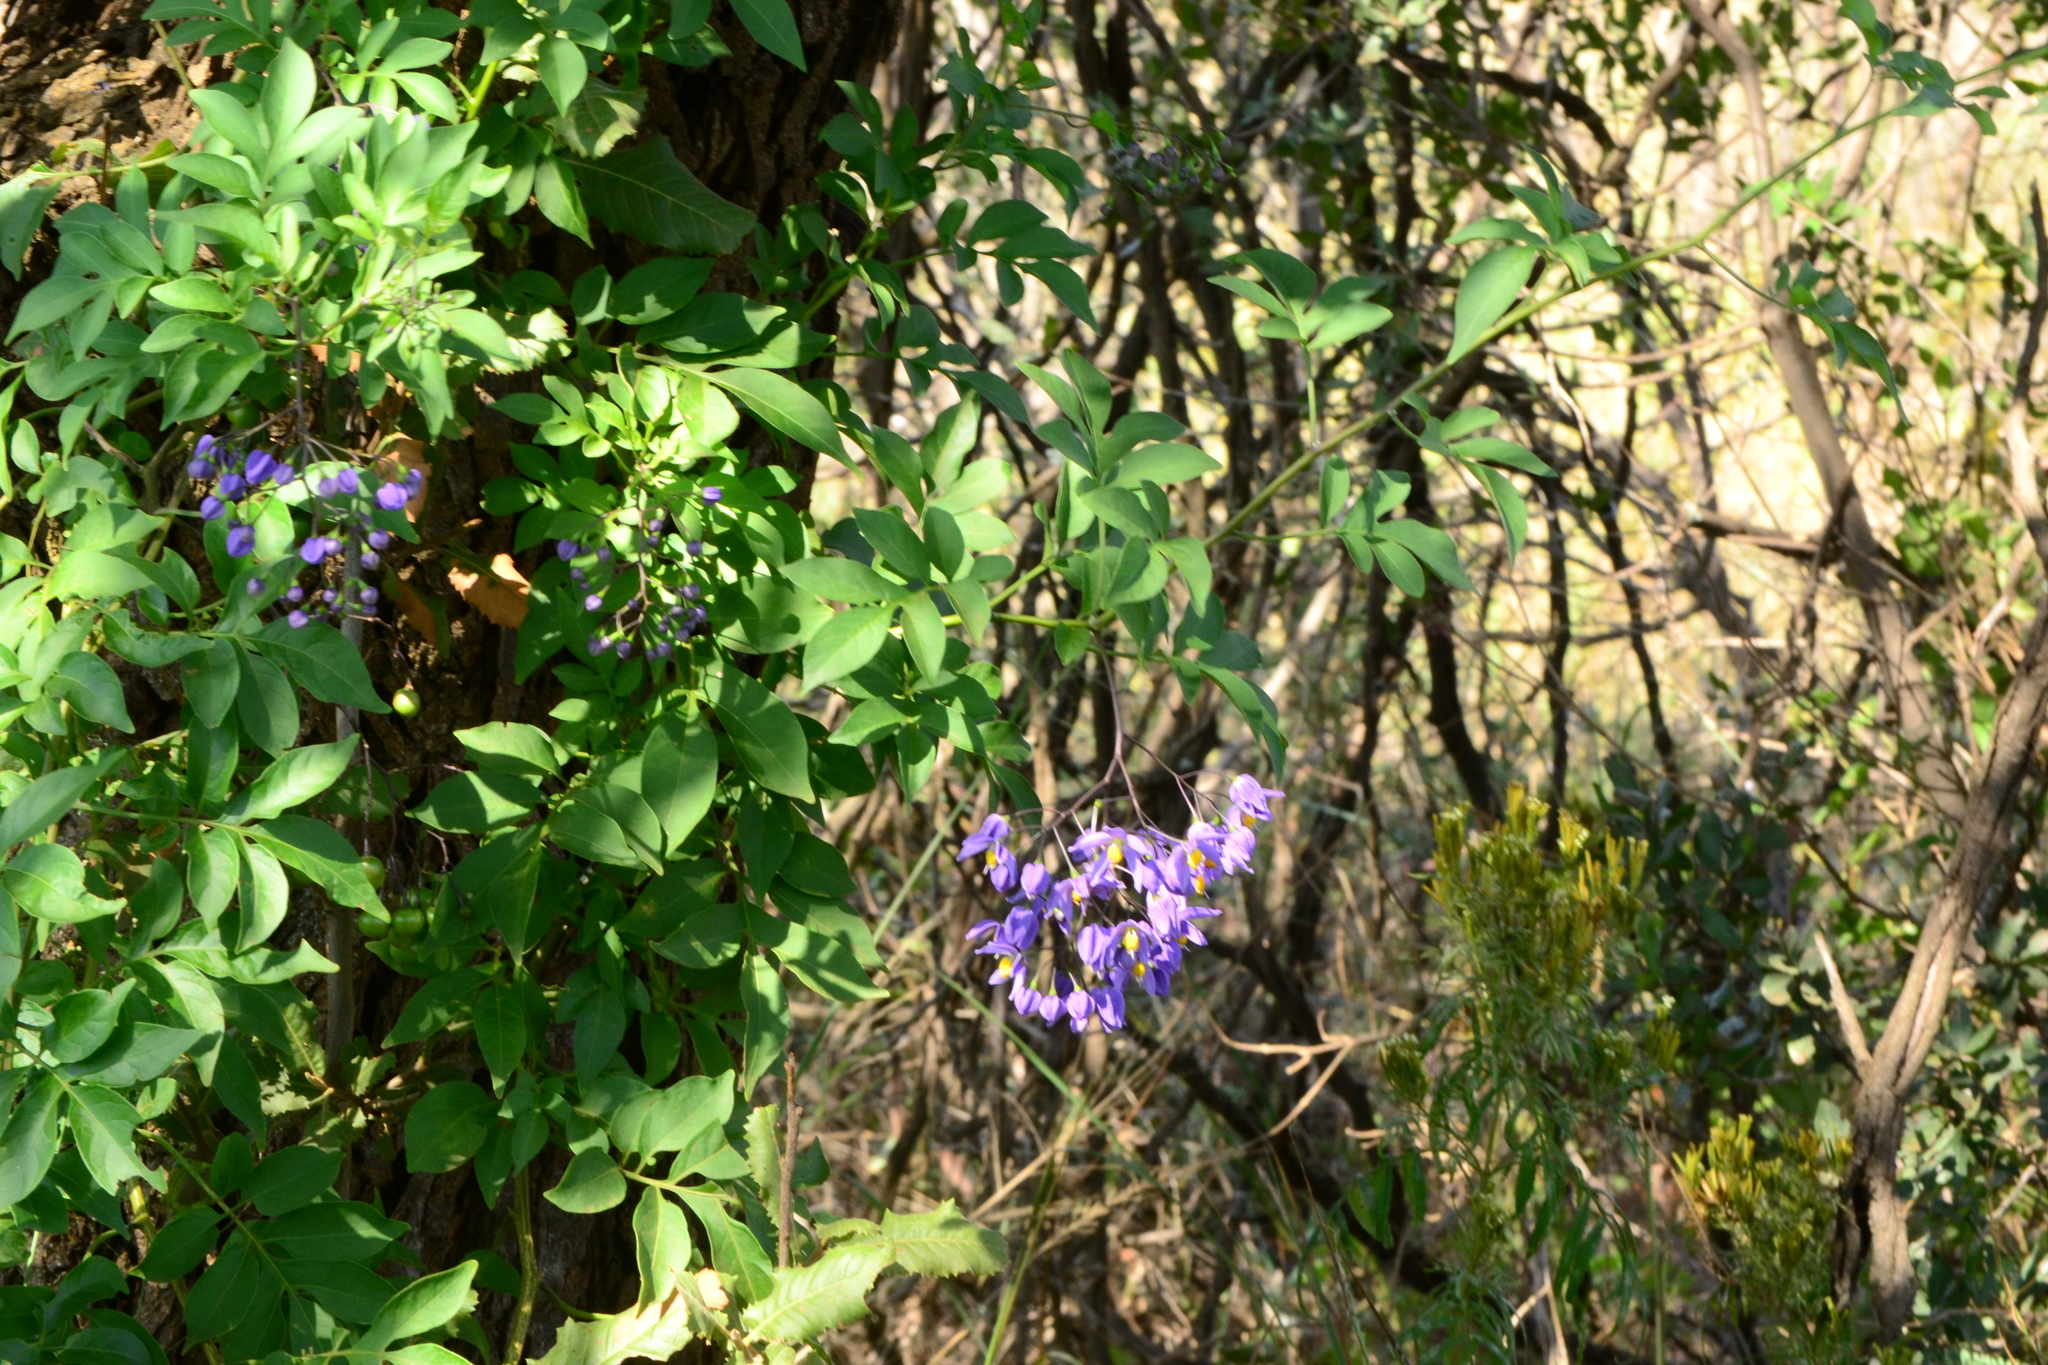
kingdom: Plantae
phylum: Tracheophyta
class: Magnoliopsida
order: Solanales
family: Solanaceae
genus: Solanum
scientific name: Solanum seaforthianum
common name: Brazilian nightshade
